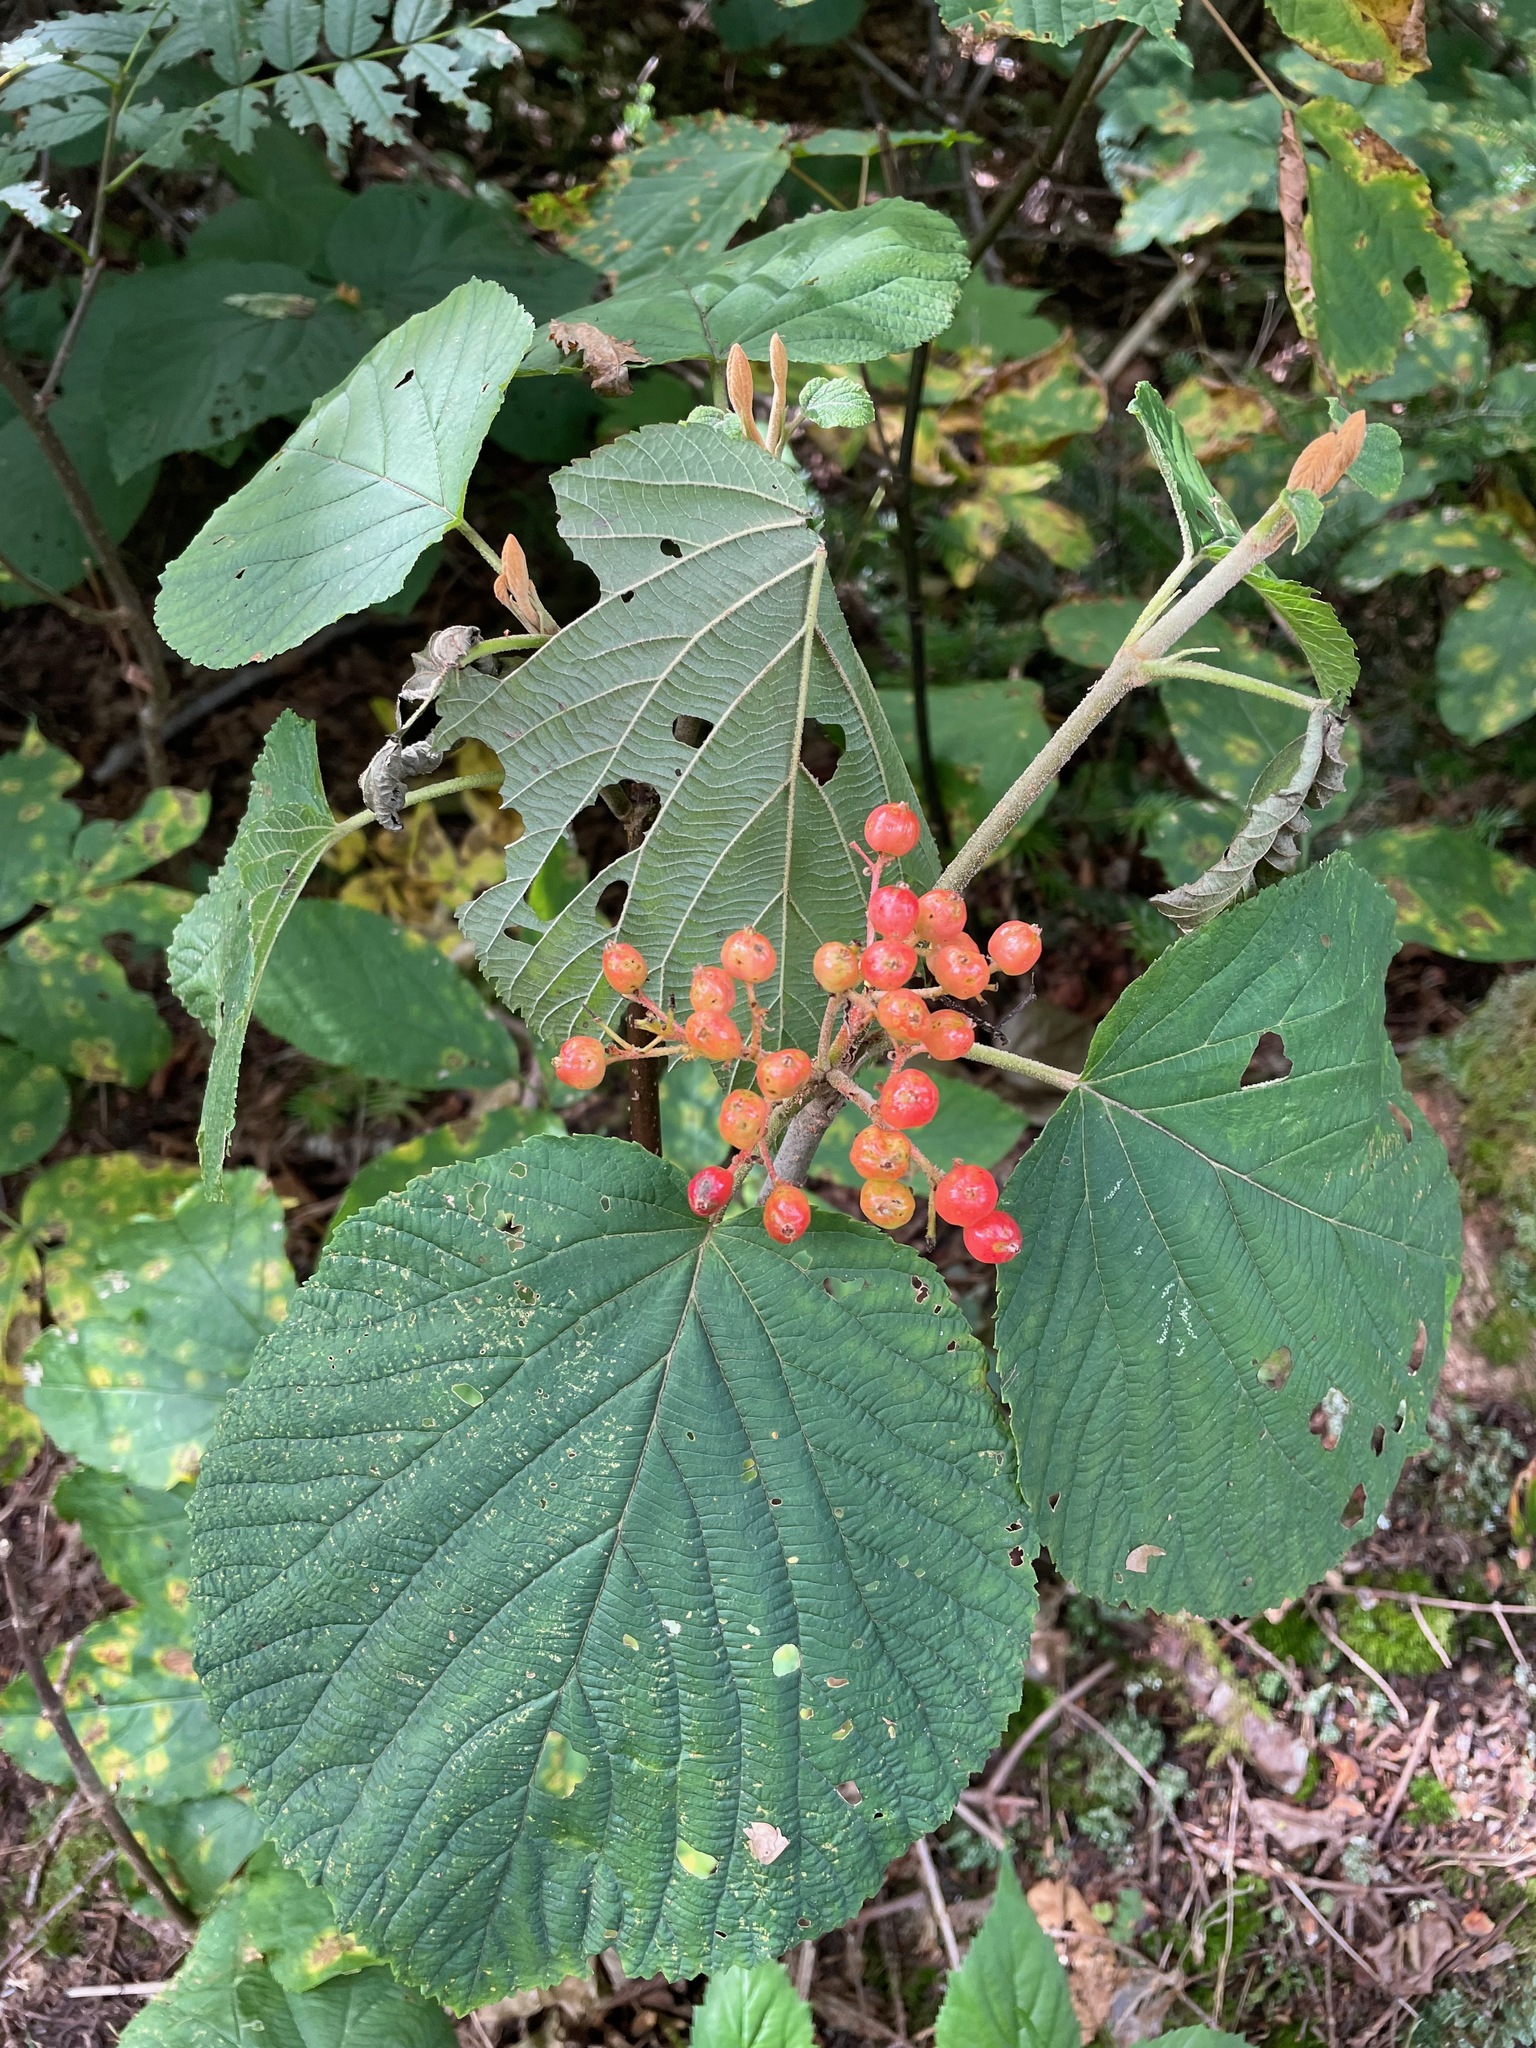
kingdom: Plantae
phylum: Tracheophyta
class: Magnoliopsida
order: Dipsacales
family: Viburnaceae
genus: Viburnum
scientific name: Viburnum lantanoides
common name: Hobblebush
